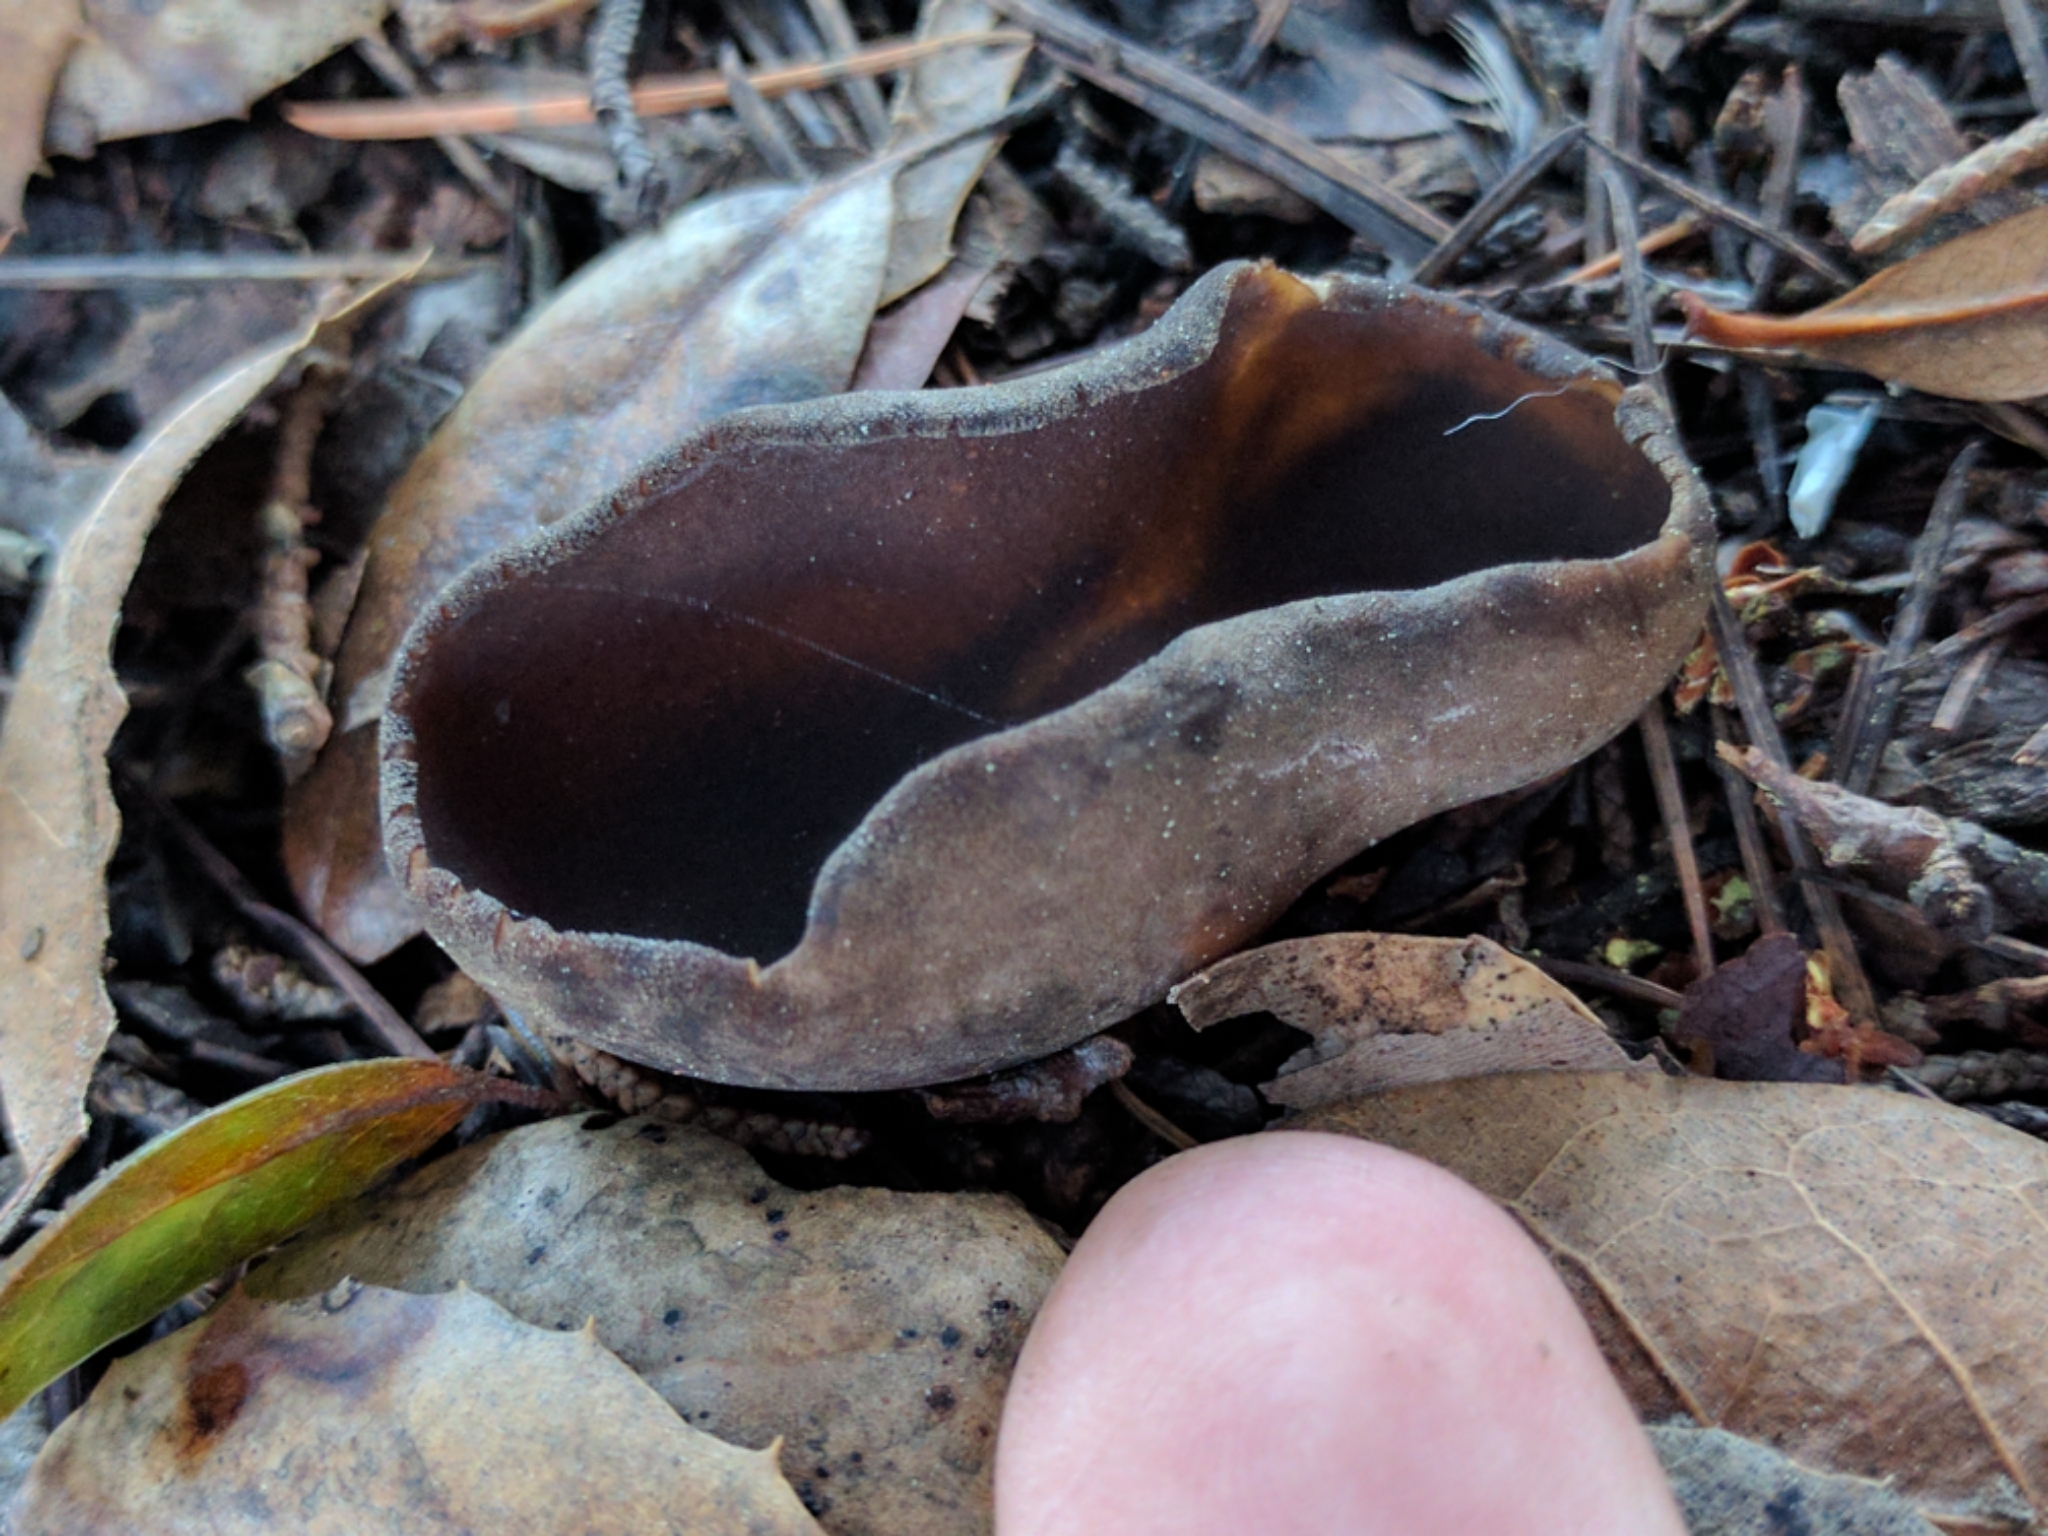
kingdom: Fungi
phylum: Ascomycota
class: Pezizomycetes
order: Pezizales
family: Helvellaceae
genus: Helvella
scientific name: Helvella acetabulum
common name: Vinegar cup
